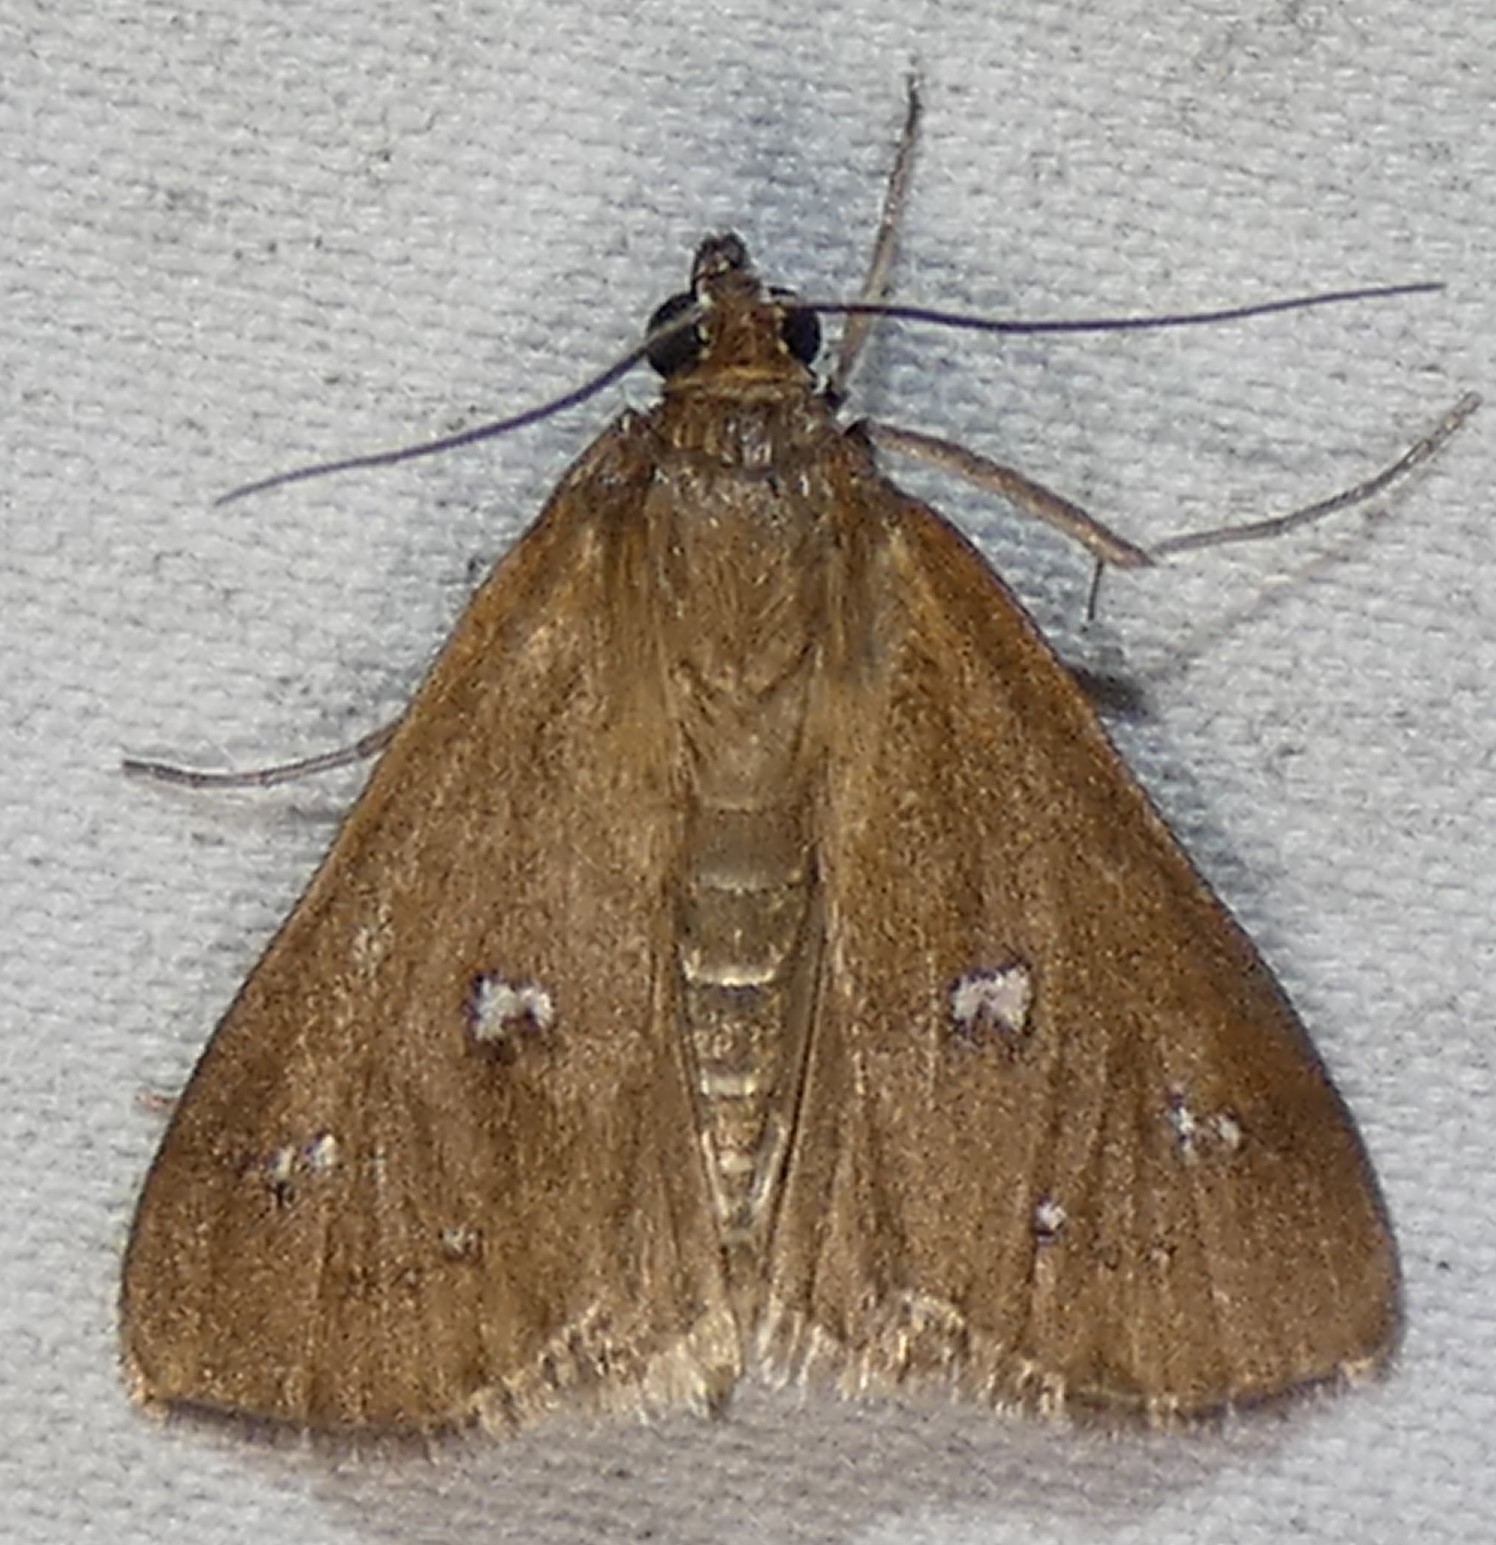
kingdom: Animalia
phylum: Arthropoda
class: Insecta
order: Lepidoptera
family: Crambidae
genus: Diastictis
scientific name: Diastictis ventralis
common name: White-spotted brown
